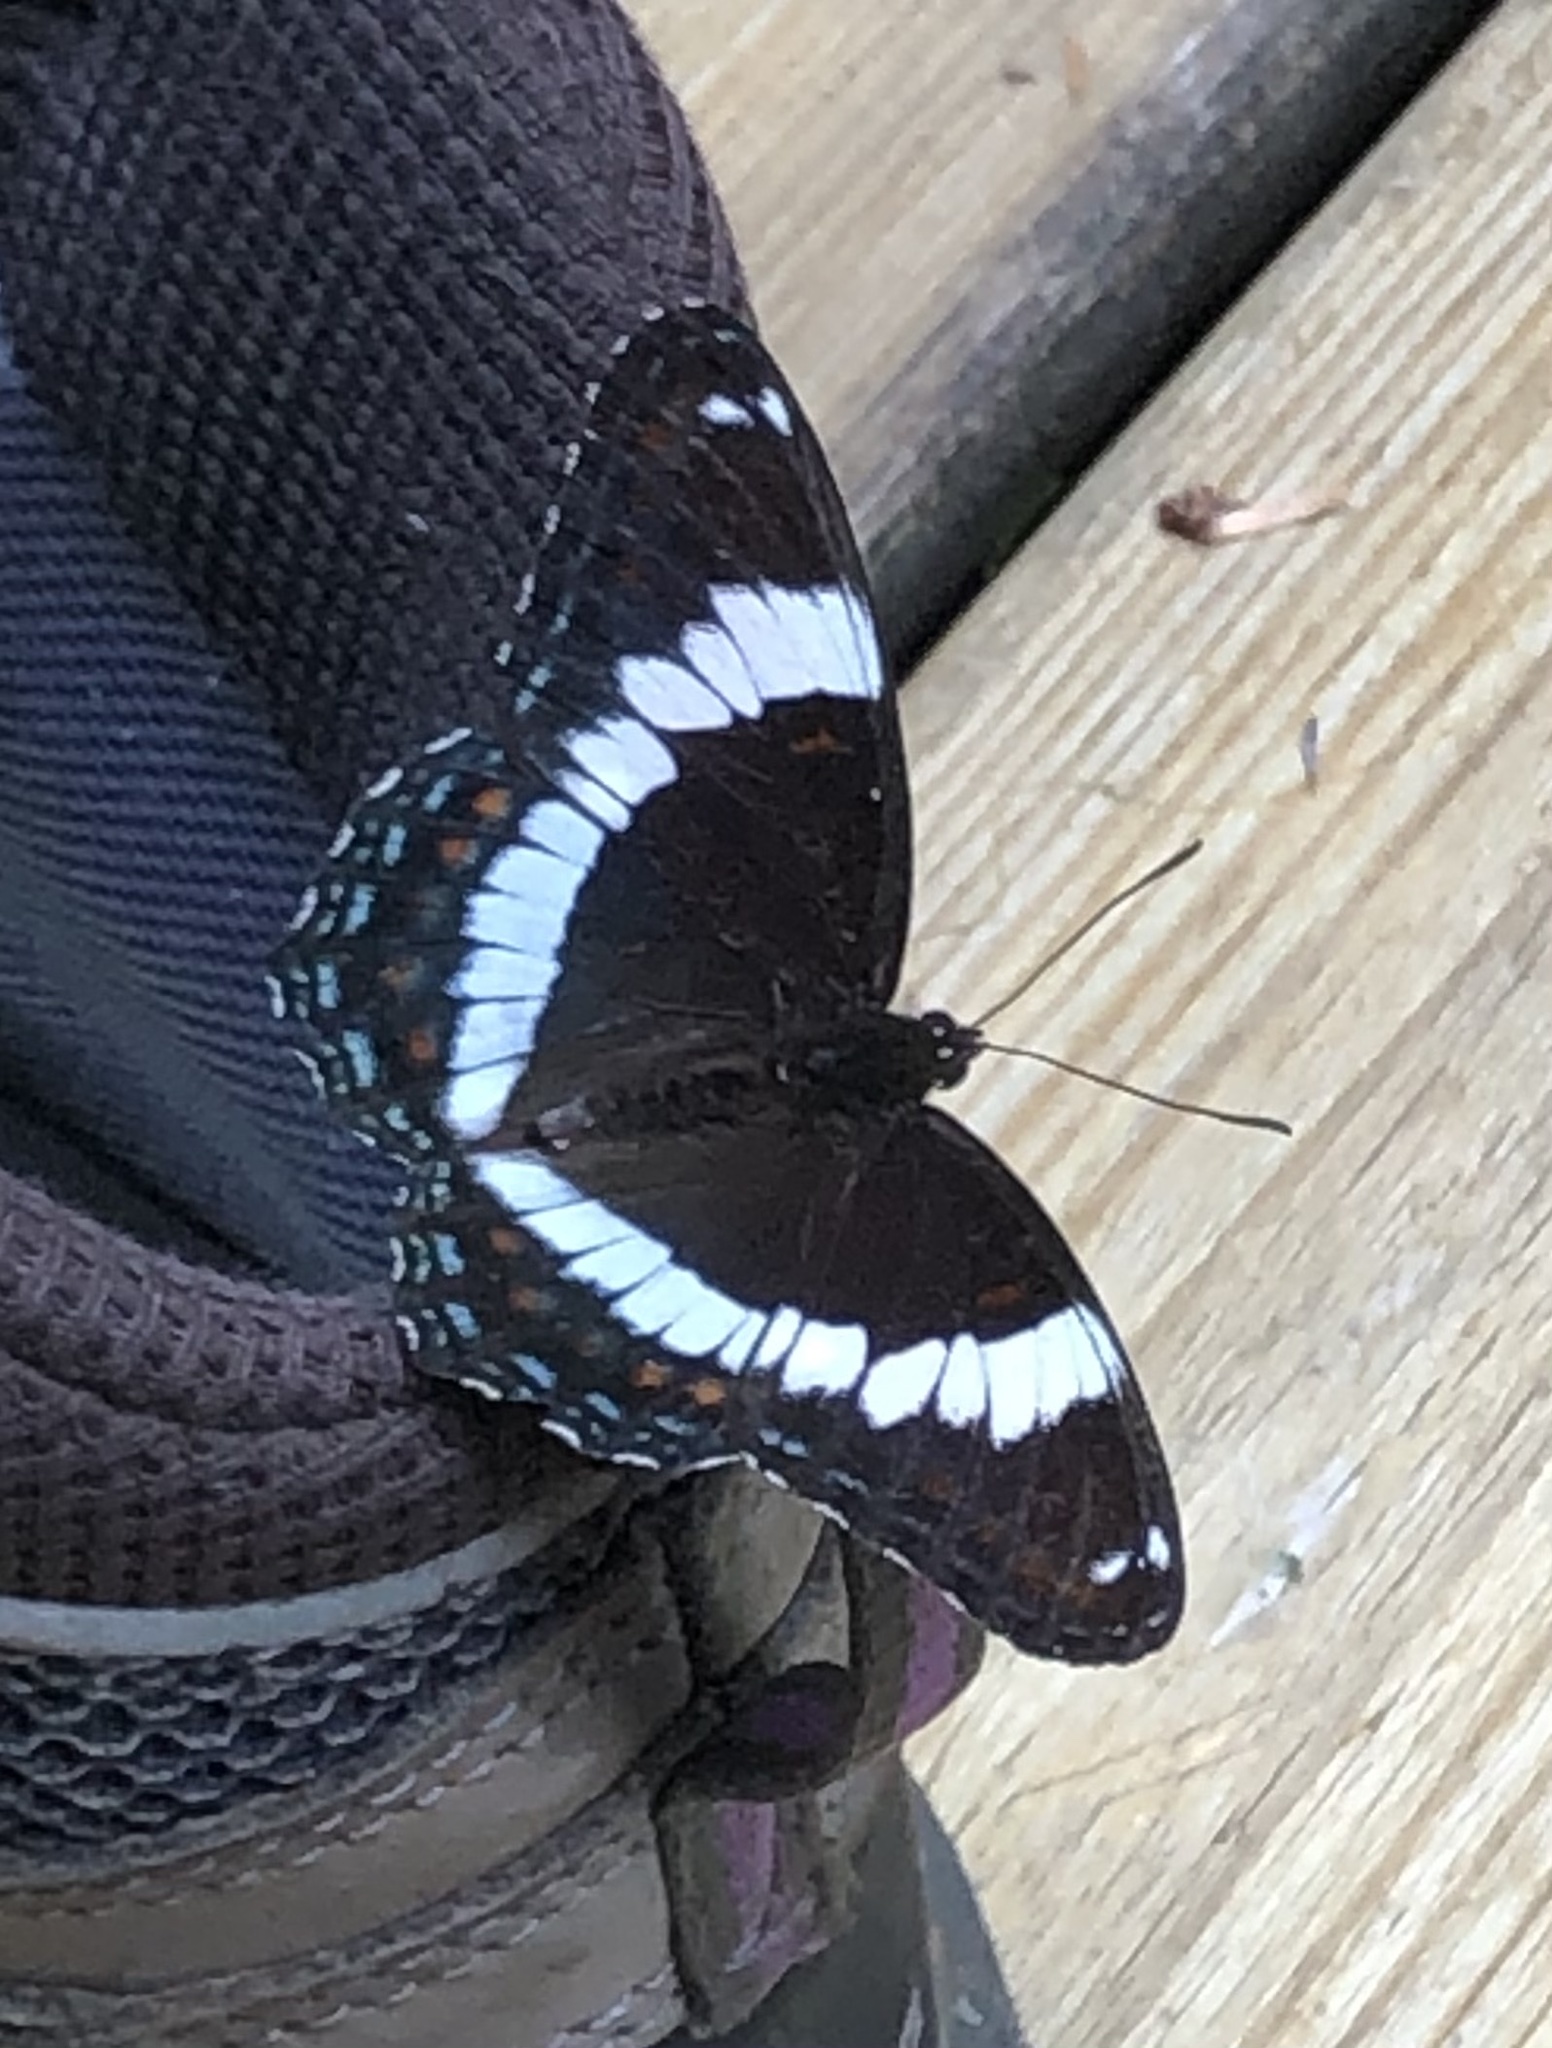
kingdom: Animalia
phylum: Arthropoda
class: Insecta
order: Lepidoptera
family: Nymphalidae
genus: Limenitis
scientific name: Limenitis arthemis
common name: Red-spotted admiral
